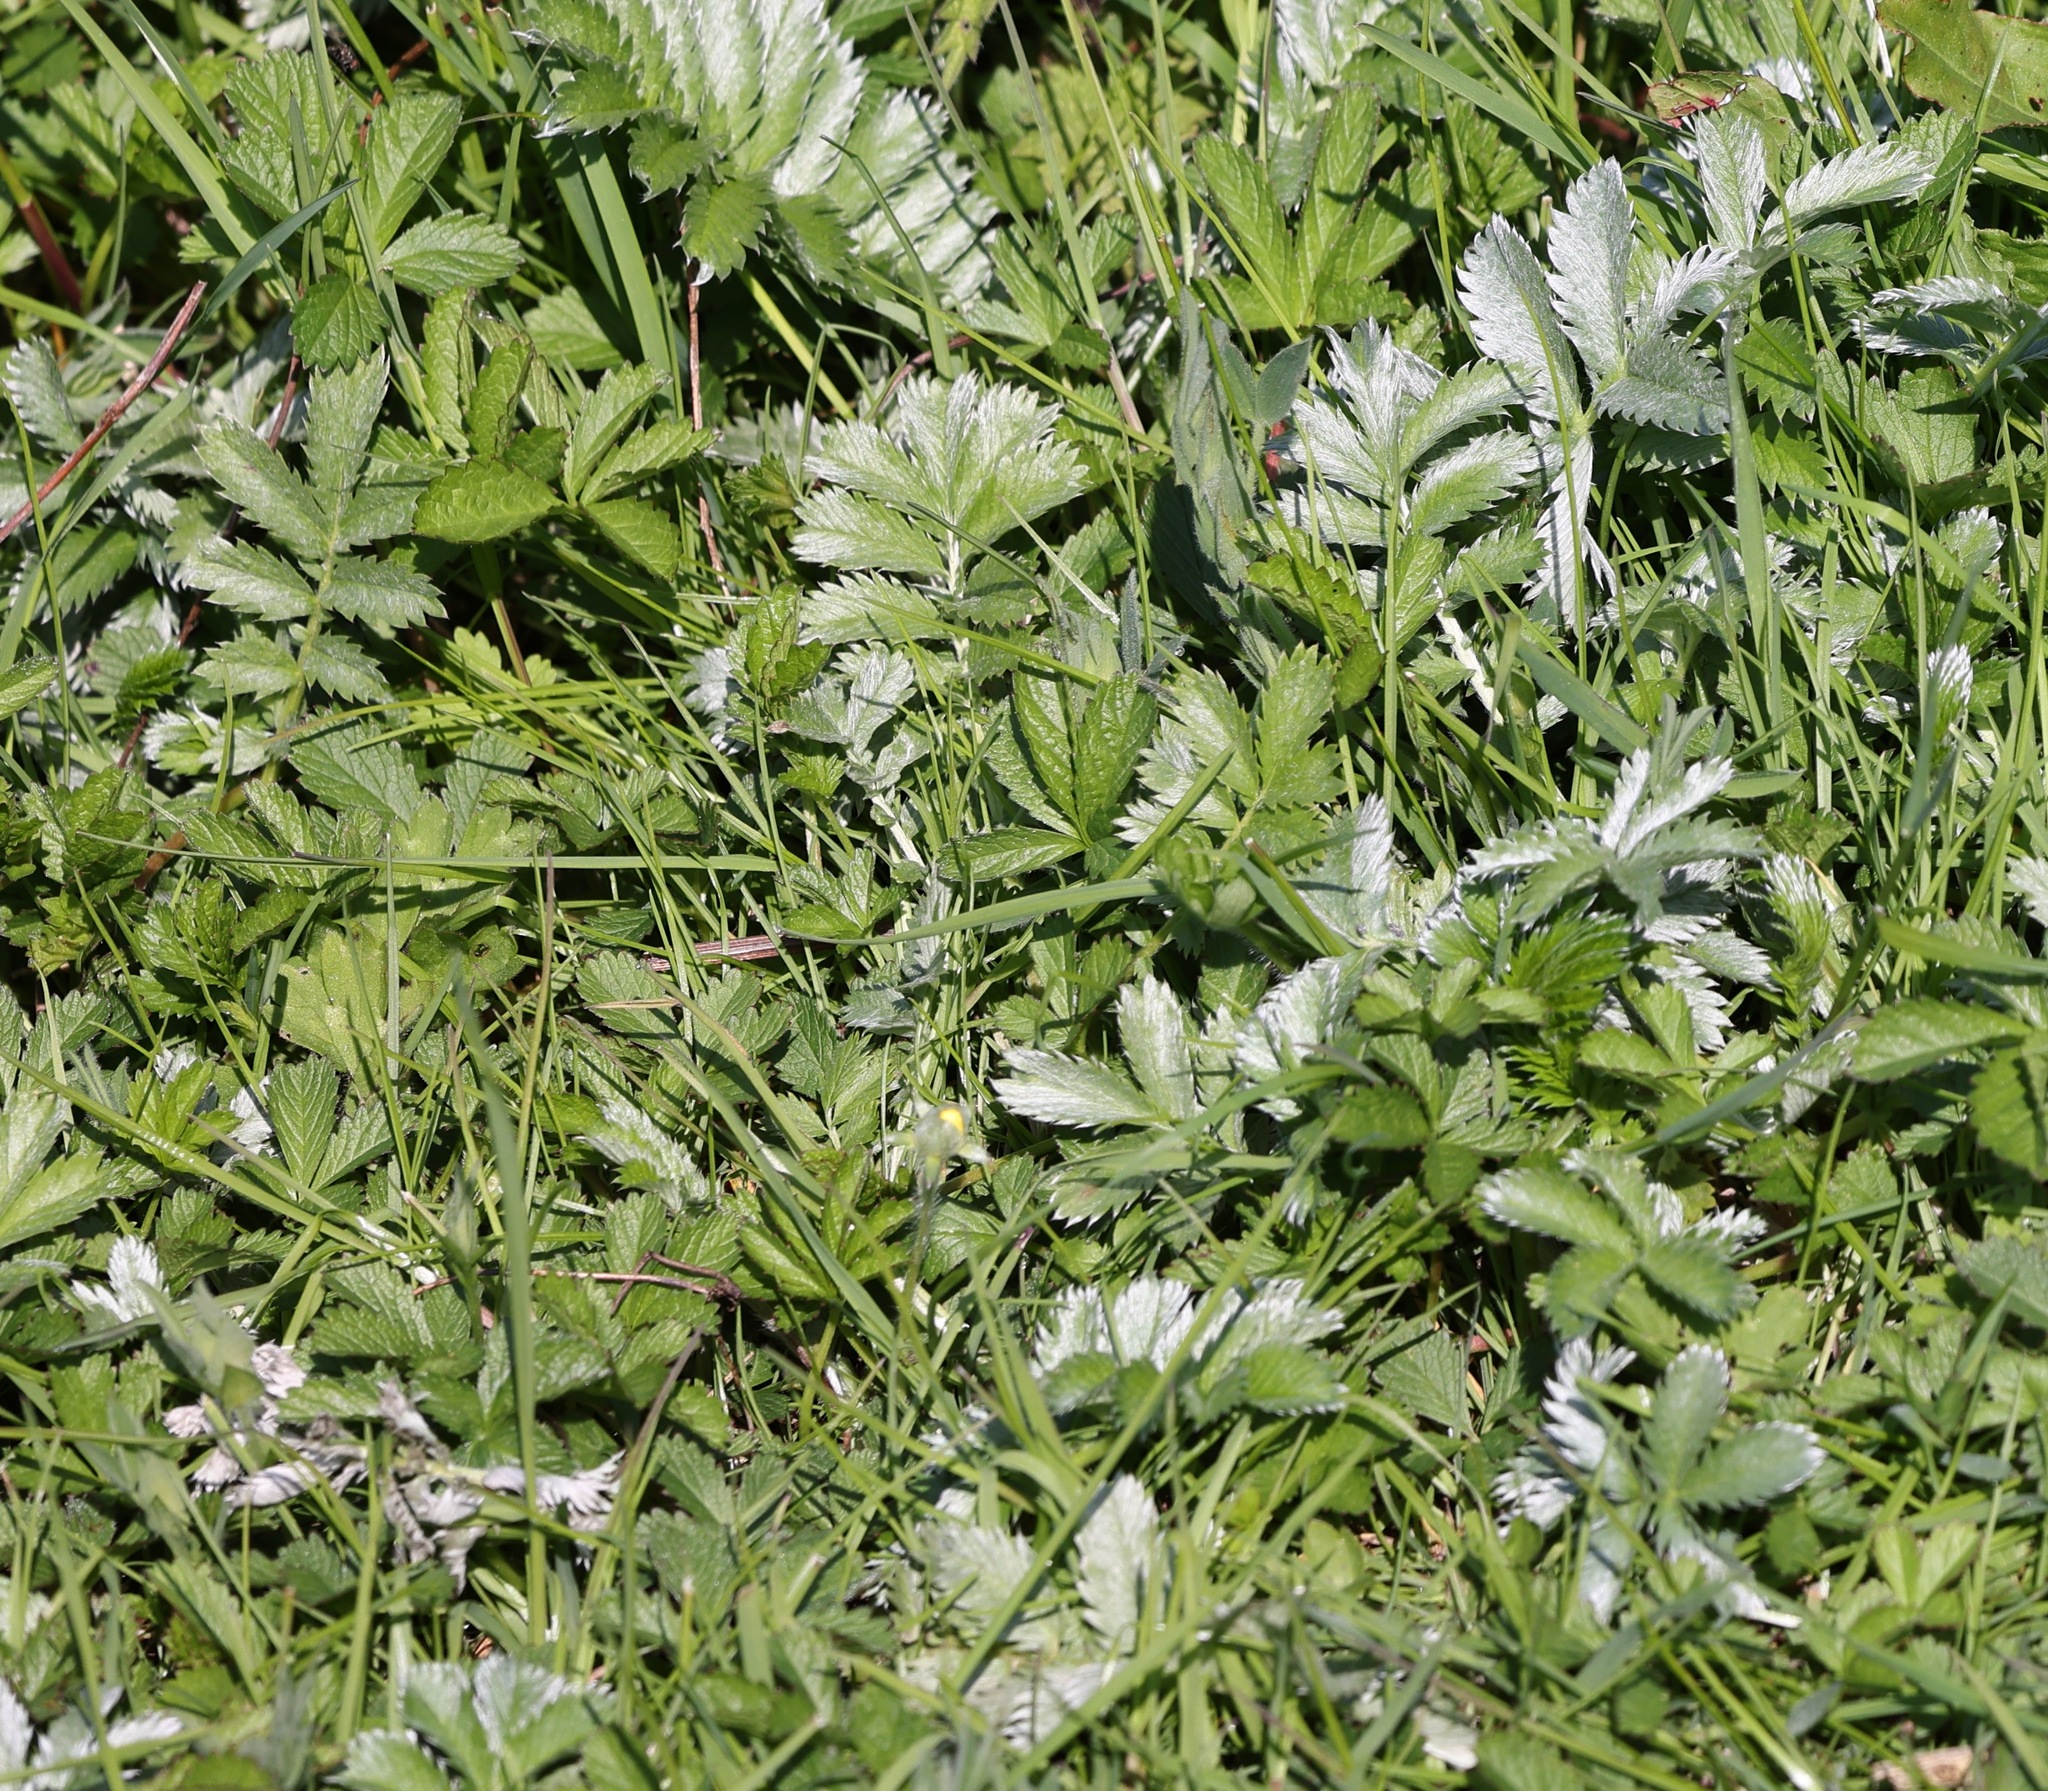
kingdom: Plantae
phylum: Tracheophyta
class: Magnoliopsida
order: Rosales
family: Rosaceae
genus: Argentina
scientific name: Argentina anserina
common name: Common silverweed
